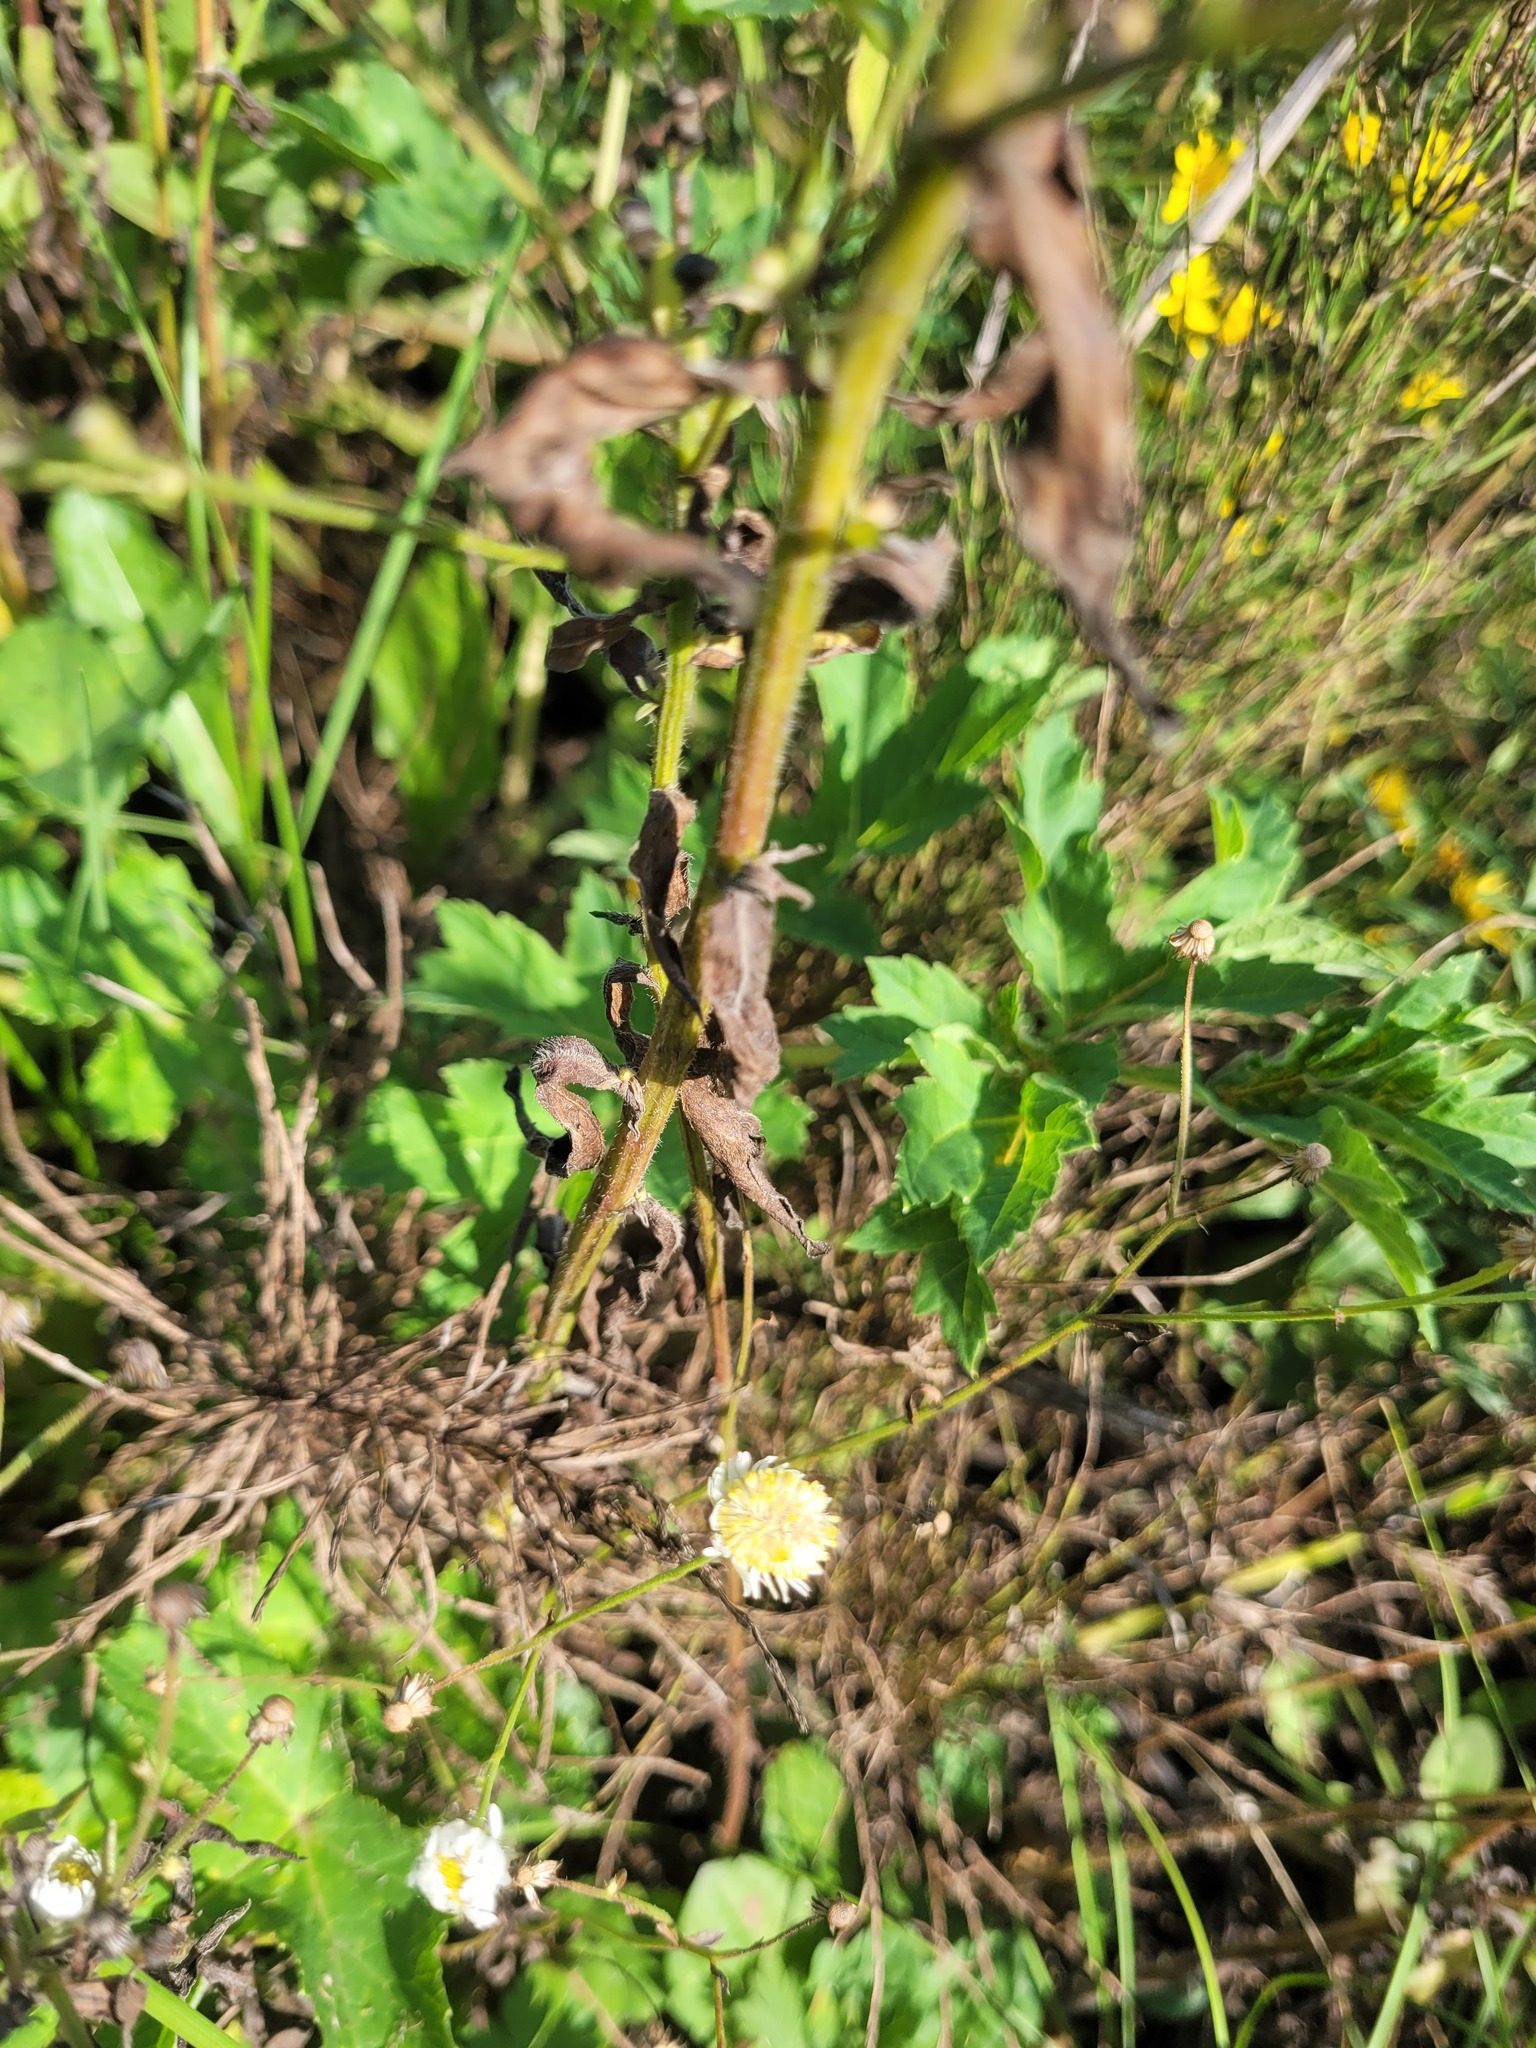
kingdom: Plantae
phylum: Tracheophyta
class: Magnoliopsida
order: Asterales
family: Asteraceae
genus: Erigeron
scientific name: Erigeron annuus
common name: Tall fleabane
